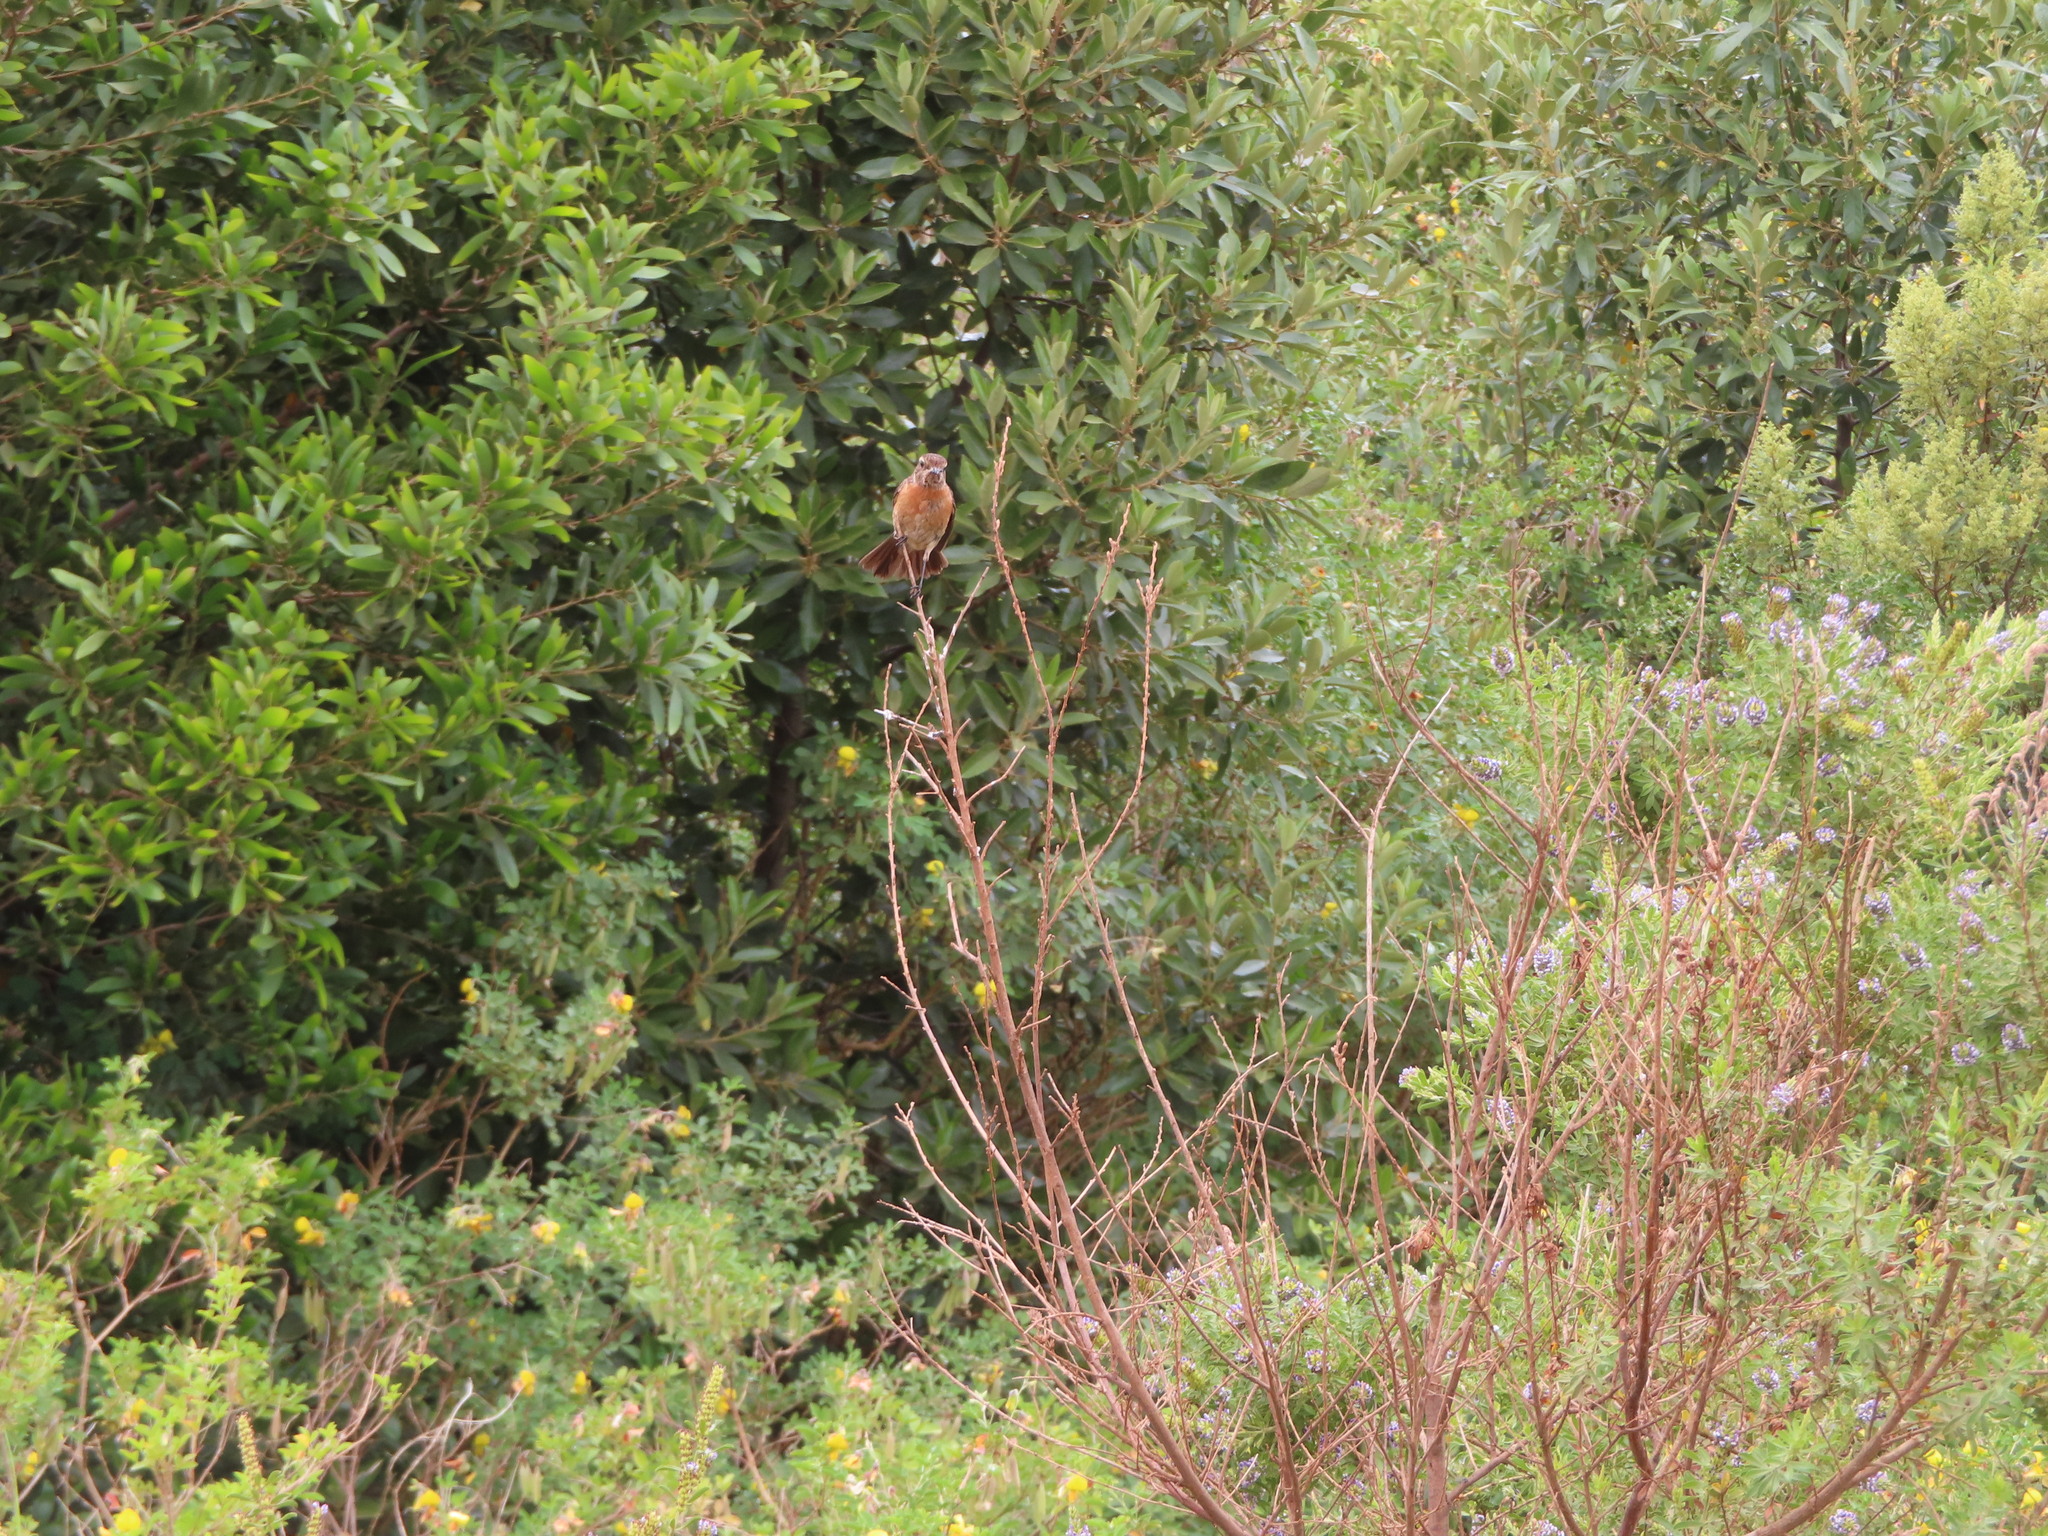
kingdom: Animalia
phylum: Chordata
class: Aves
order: Passeriformes
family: Muscicapidae
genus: Saxicola
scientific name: Saxicola torquatus
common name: African stonechat
